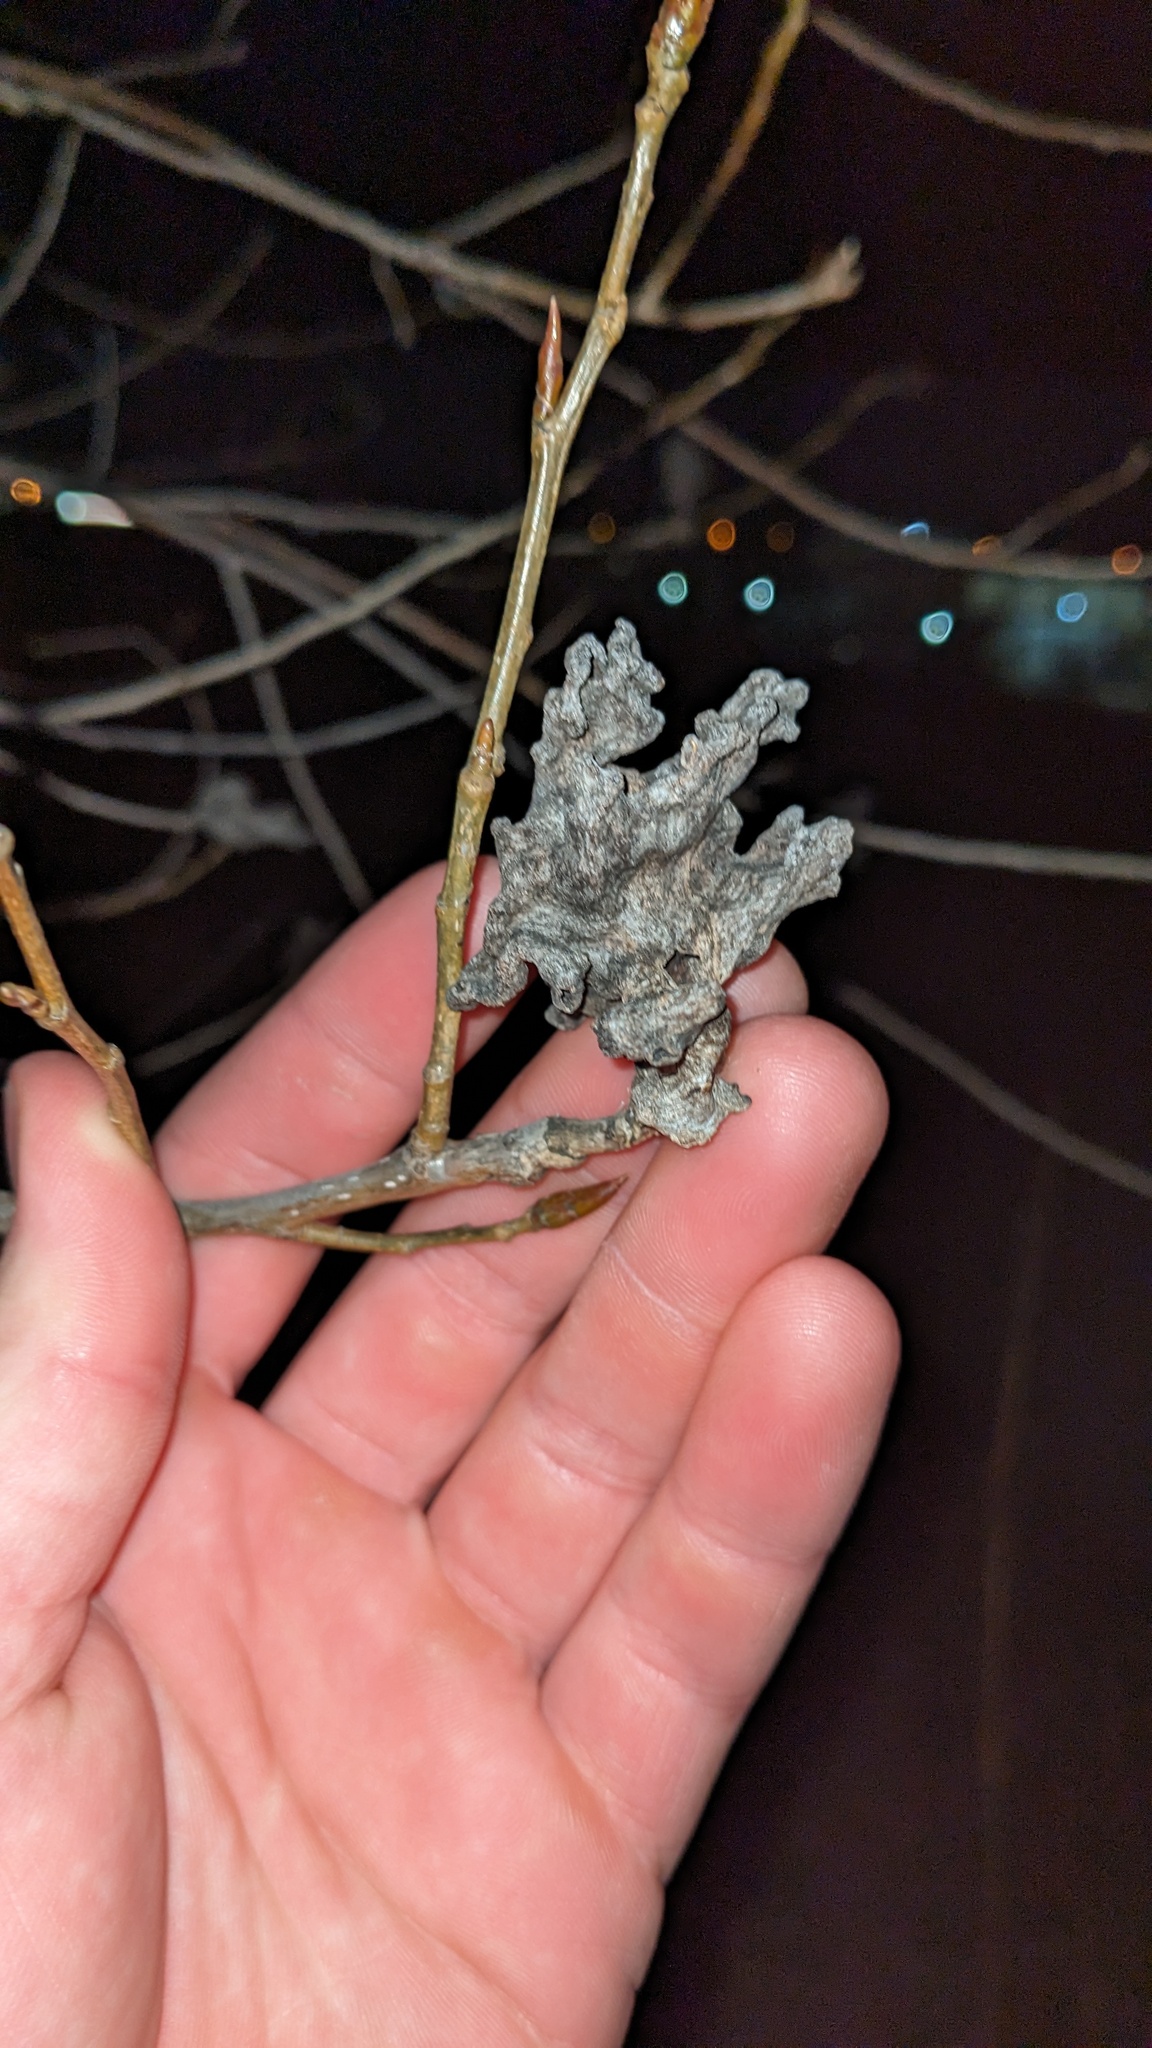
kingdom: Animalia
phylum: Arthropoda
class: Insecta
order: Hemiptera
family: Aphididae
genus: Mordwilkoja
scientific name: Mordwilkoja vagabunda
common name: Poplar vagabond aphid
